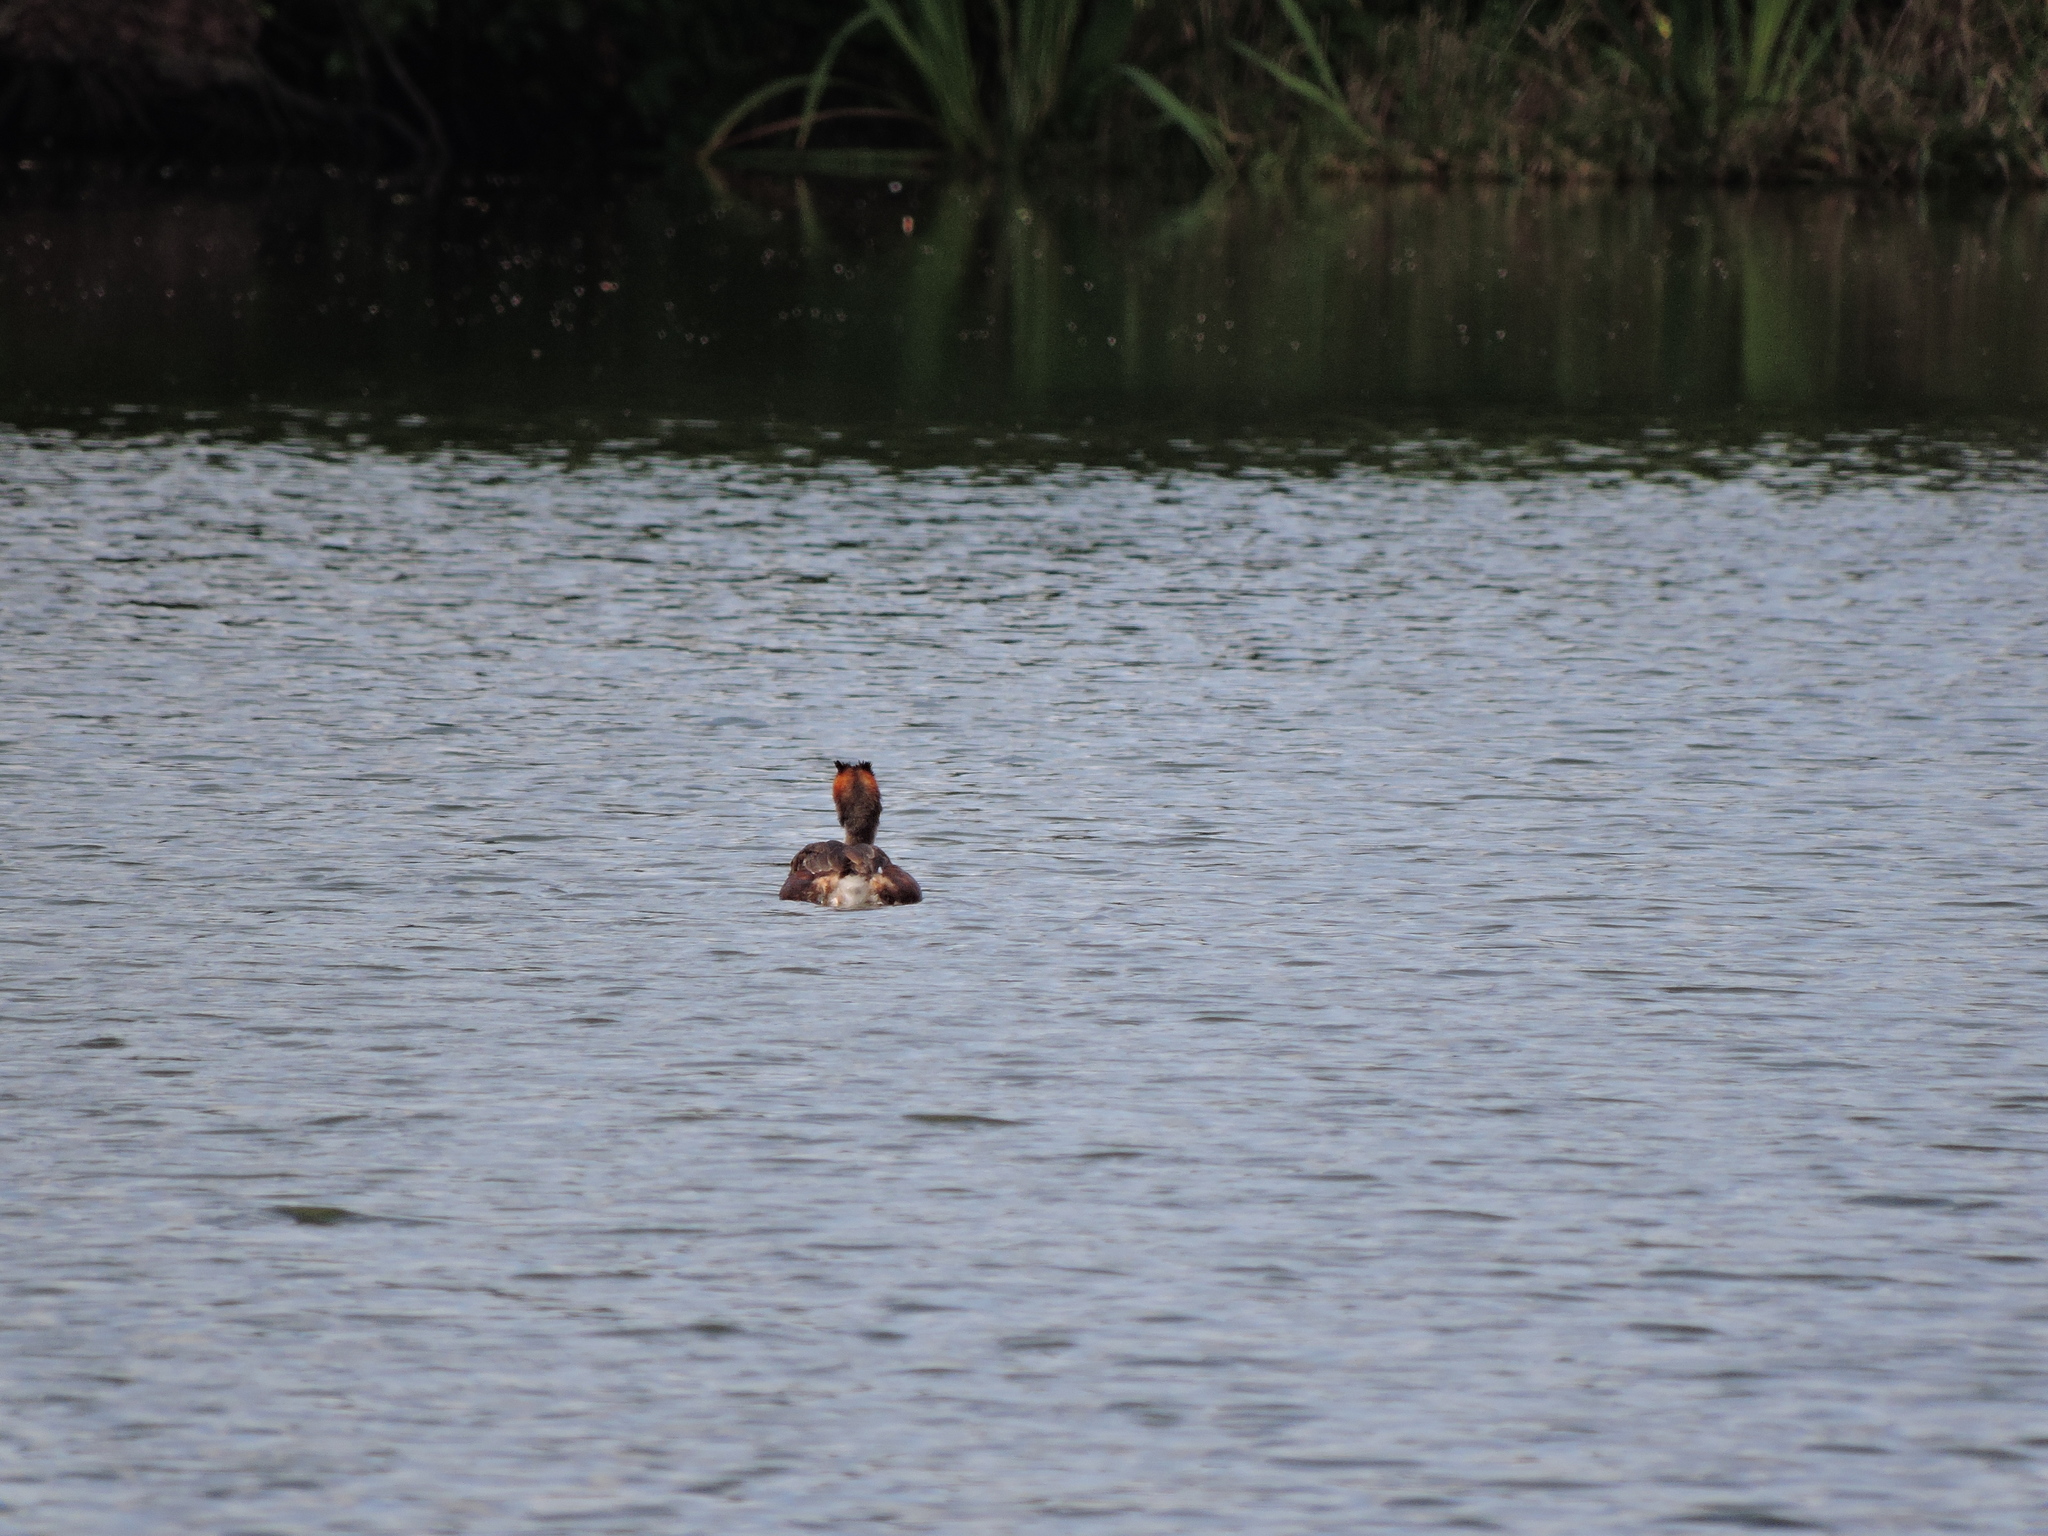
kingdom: Animalia
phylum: Chordata
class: Aves
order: Podicipediformes
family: Podicipedidae
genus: Podiceps
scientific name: Podiceps cristatus
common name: Great crested grebe
